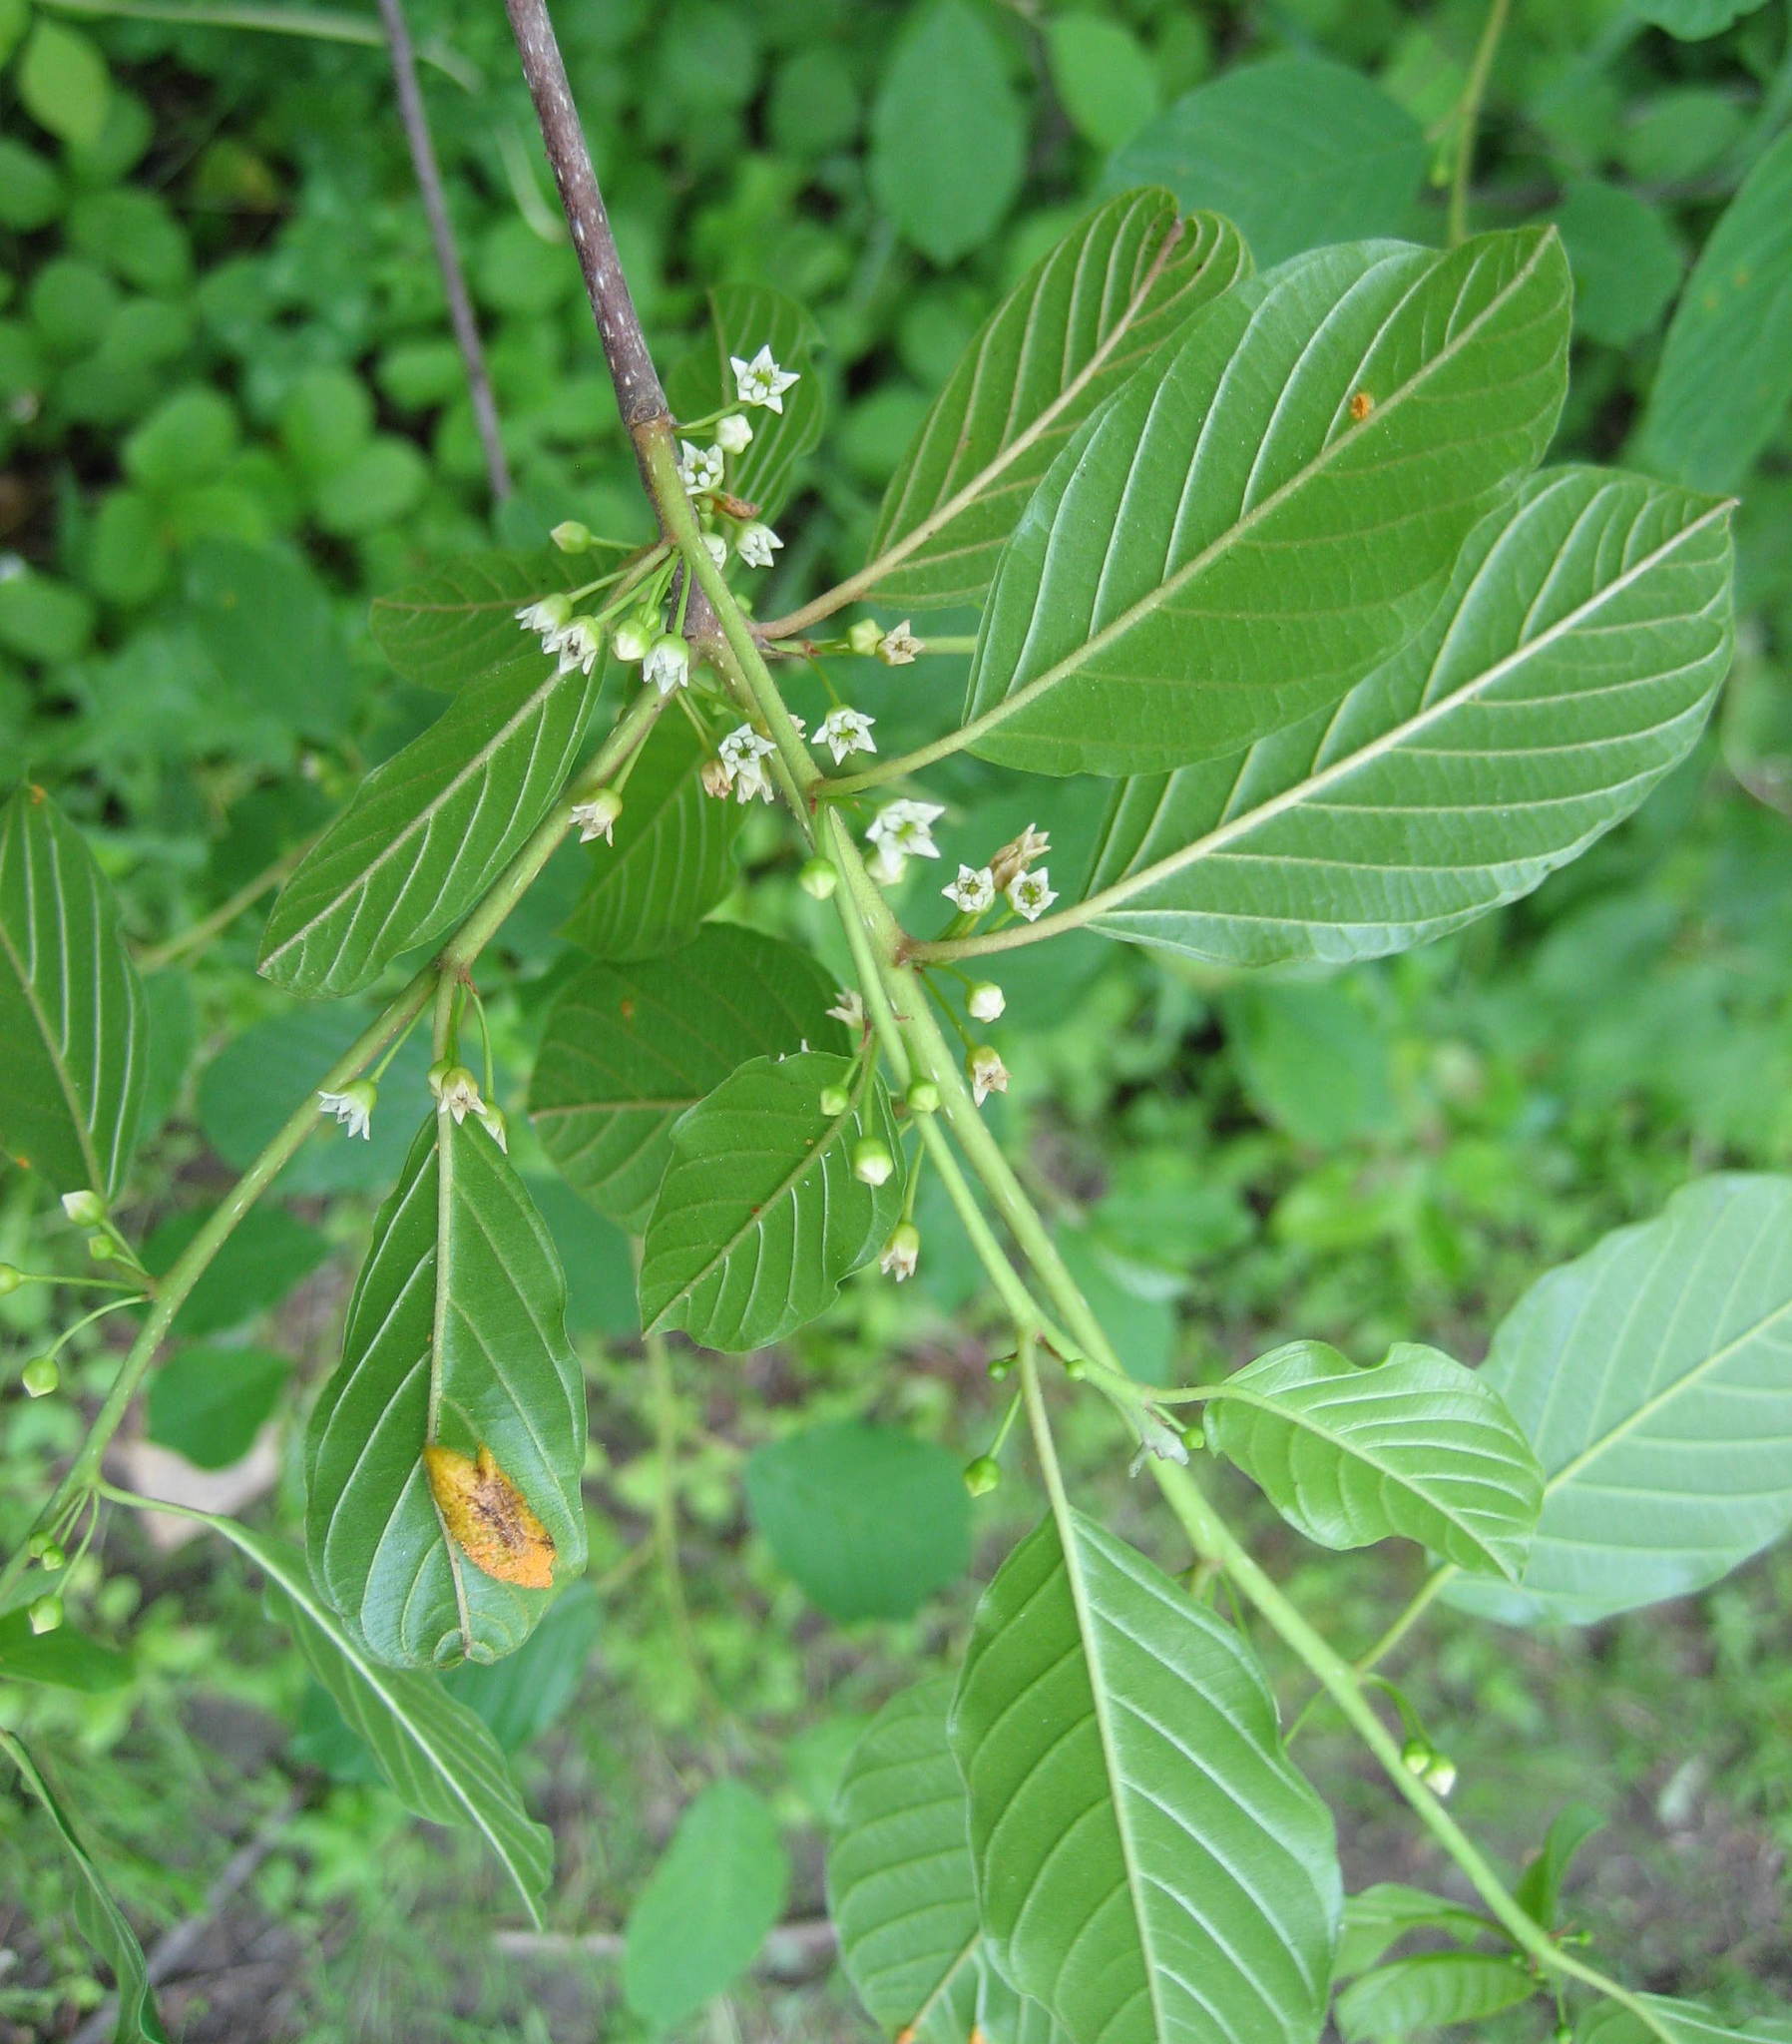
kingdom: Plantae
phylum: Tracheophyta
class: Magnoliopsida
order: Rosales
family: Rhamnaceae
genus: Frangula
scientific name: Frangula alnus
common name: Alder buckthorn
